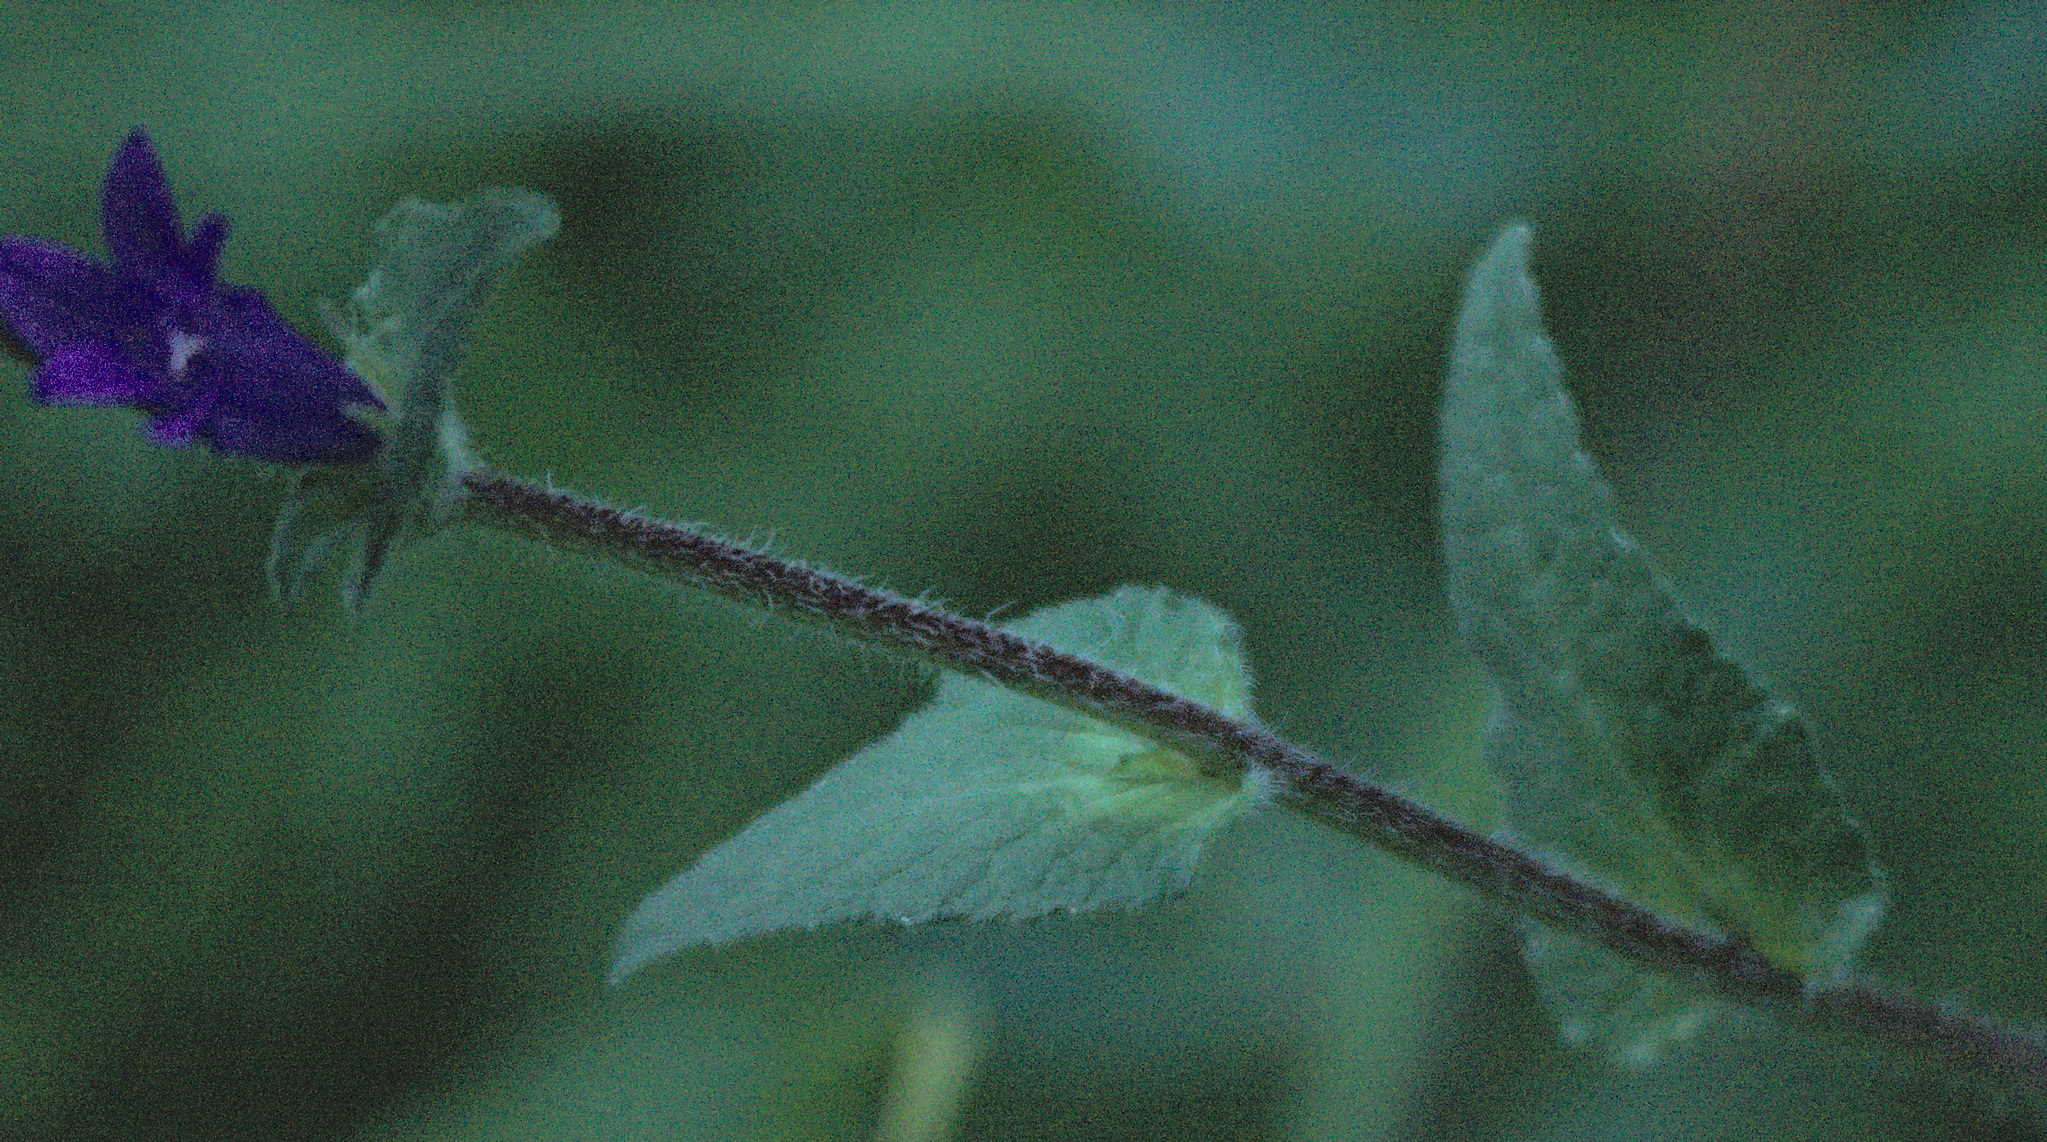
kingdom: Plantae
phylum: Tracheophyta
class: Magnoliopsida
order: Asterales
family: Campanulaceae
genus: Campanula
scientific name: Campanula glomerata
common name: Clustered bellflower
